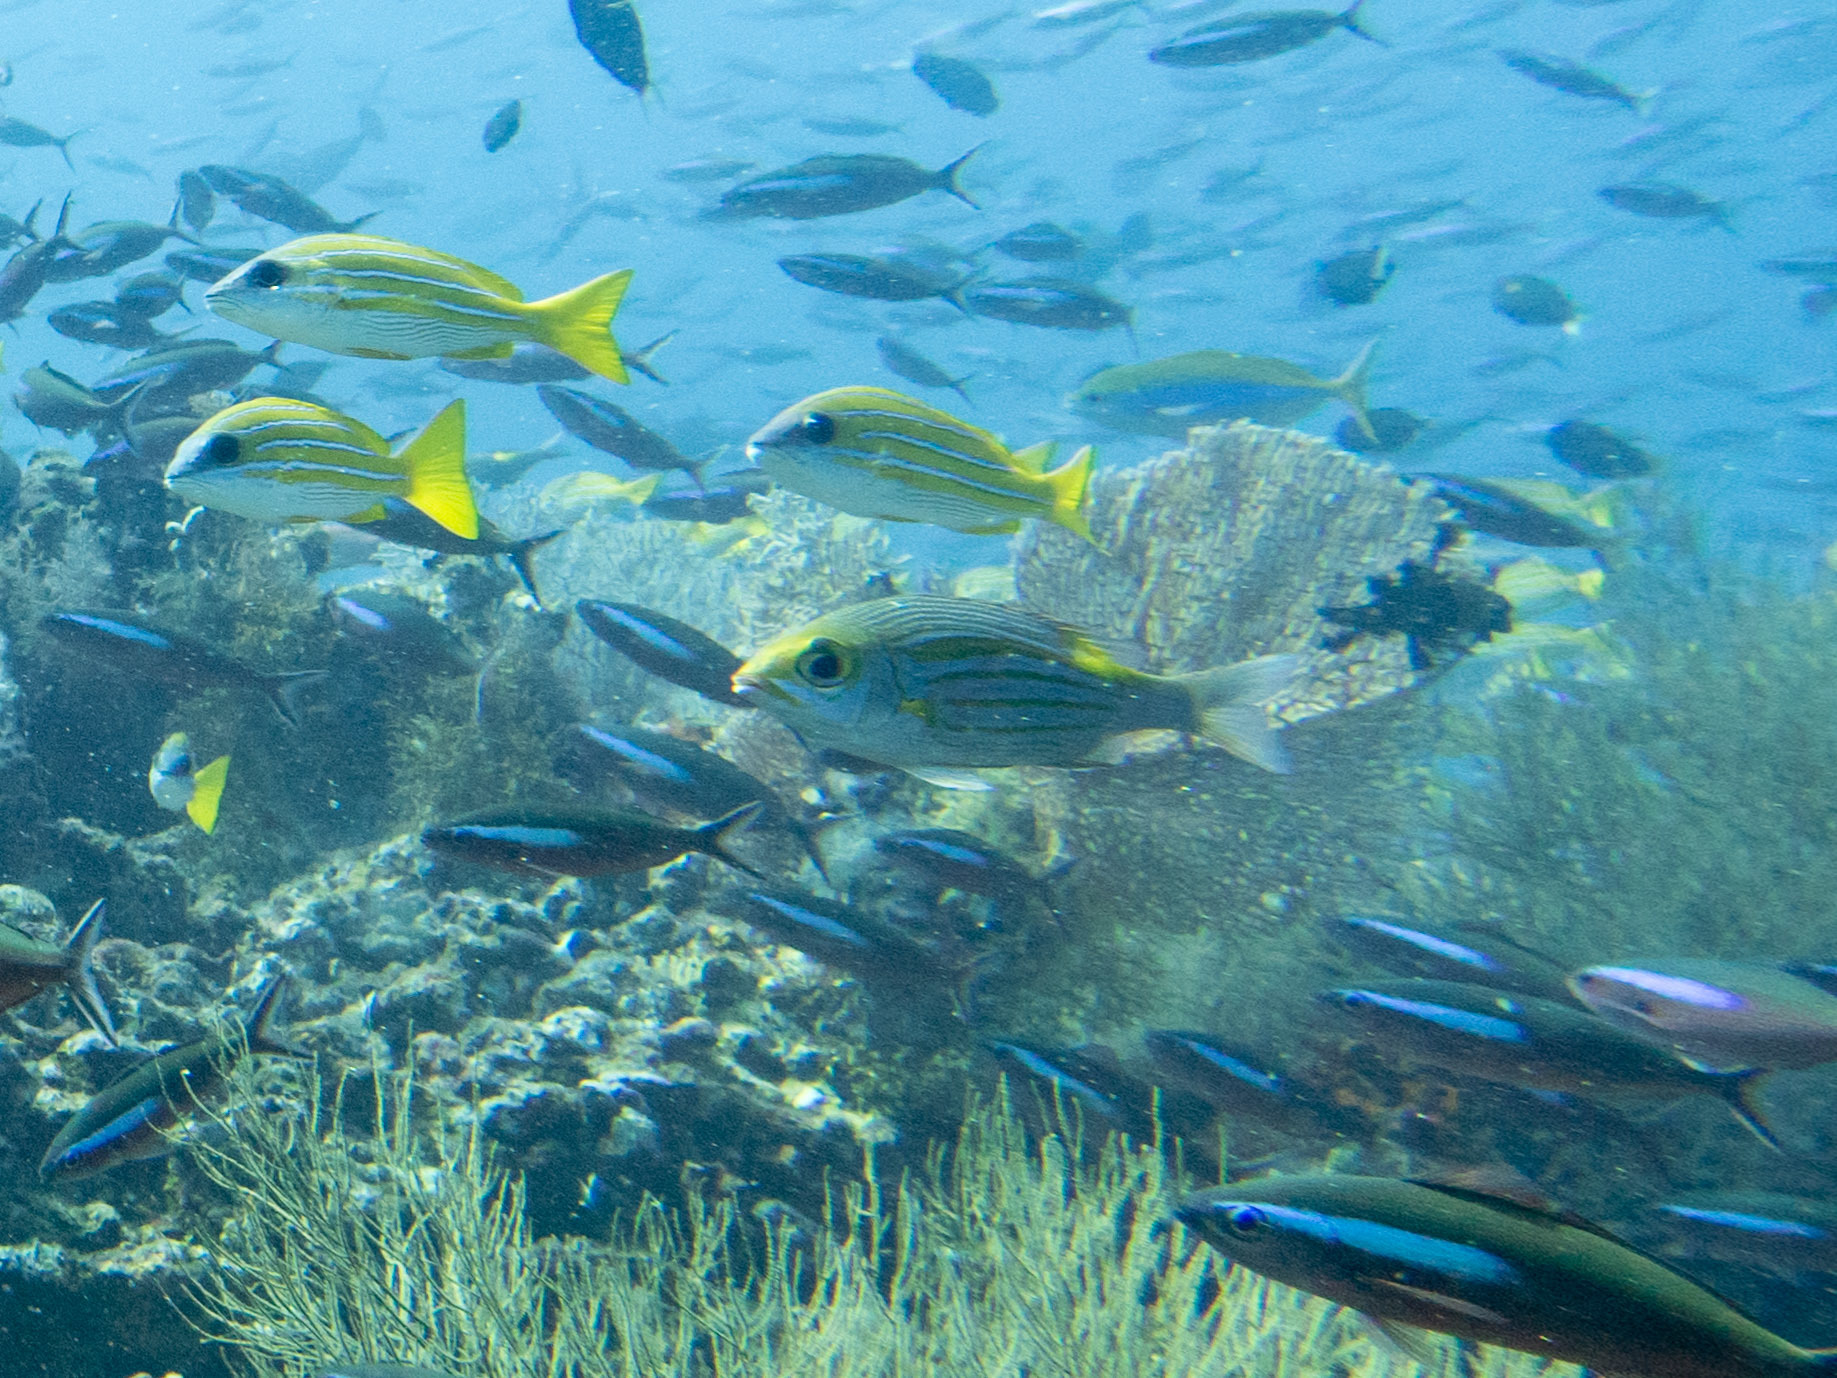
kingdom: Animalia
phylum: Chordata
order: Perciformes
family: Lethrinidae
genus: Gnathodentex
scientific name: Gnathodentex aureolineatus
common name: Gold-lined sea bream
